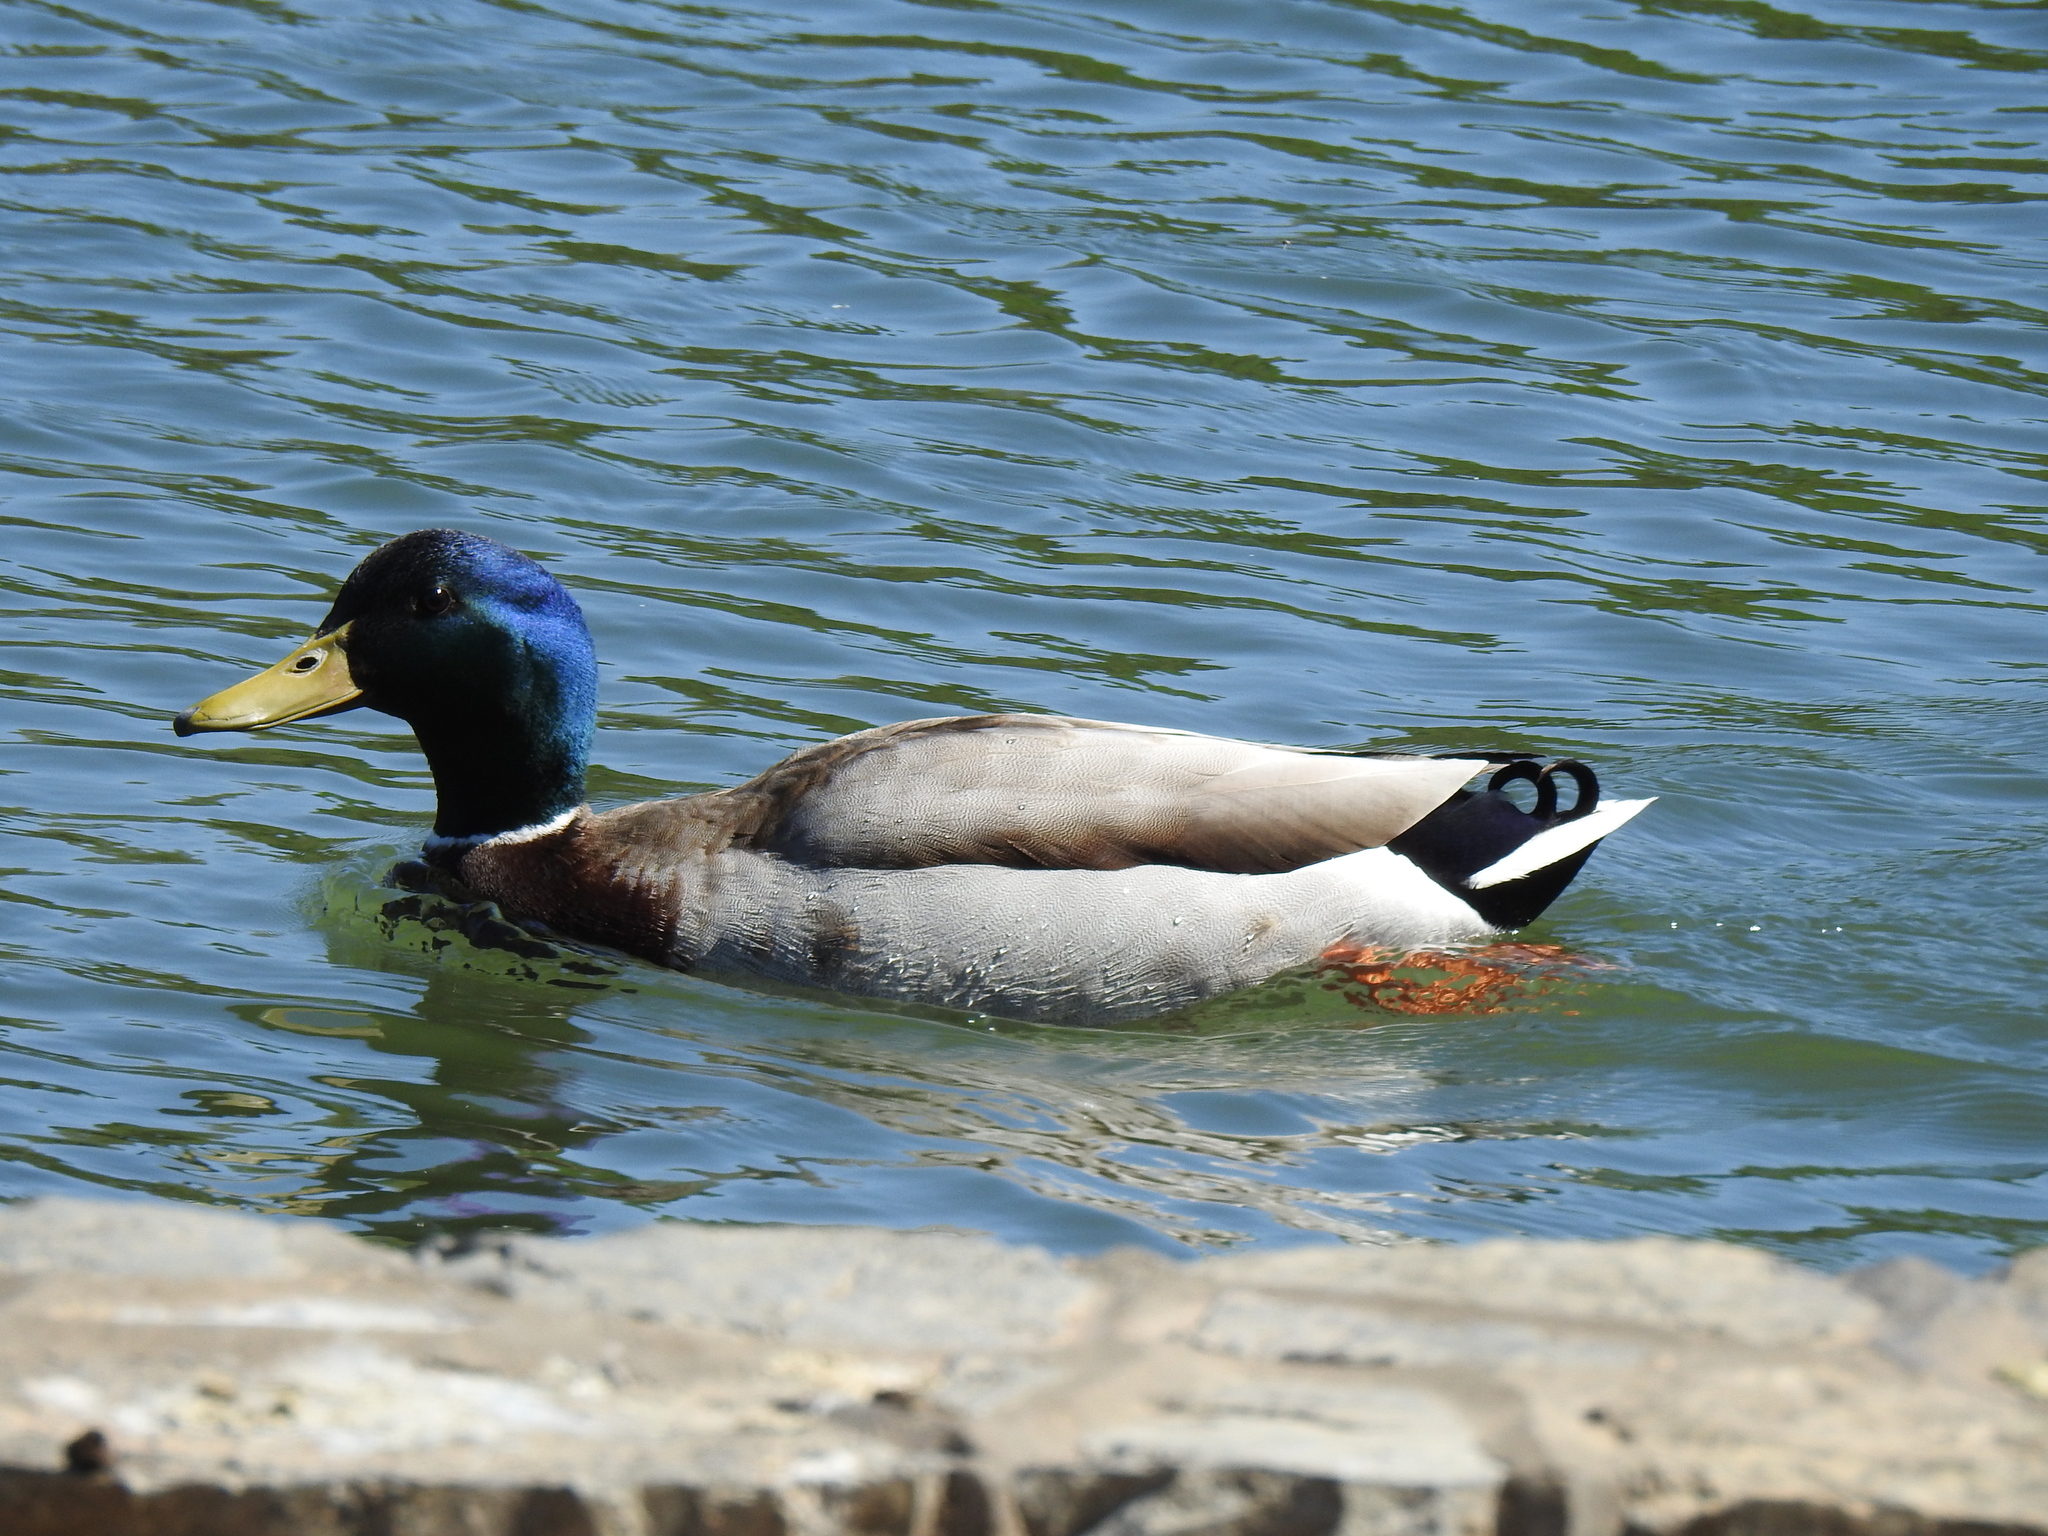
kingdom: Animalia
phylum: Chordata
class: Aves
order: Anseriformes
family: Anatidae
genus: Anas
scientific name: Anas platyrhynchos
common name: Mallard
